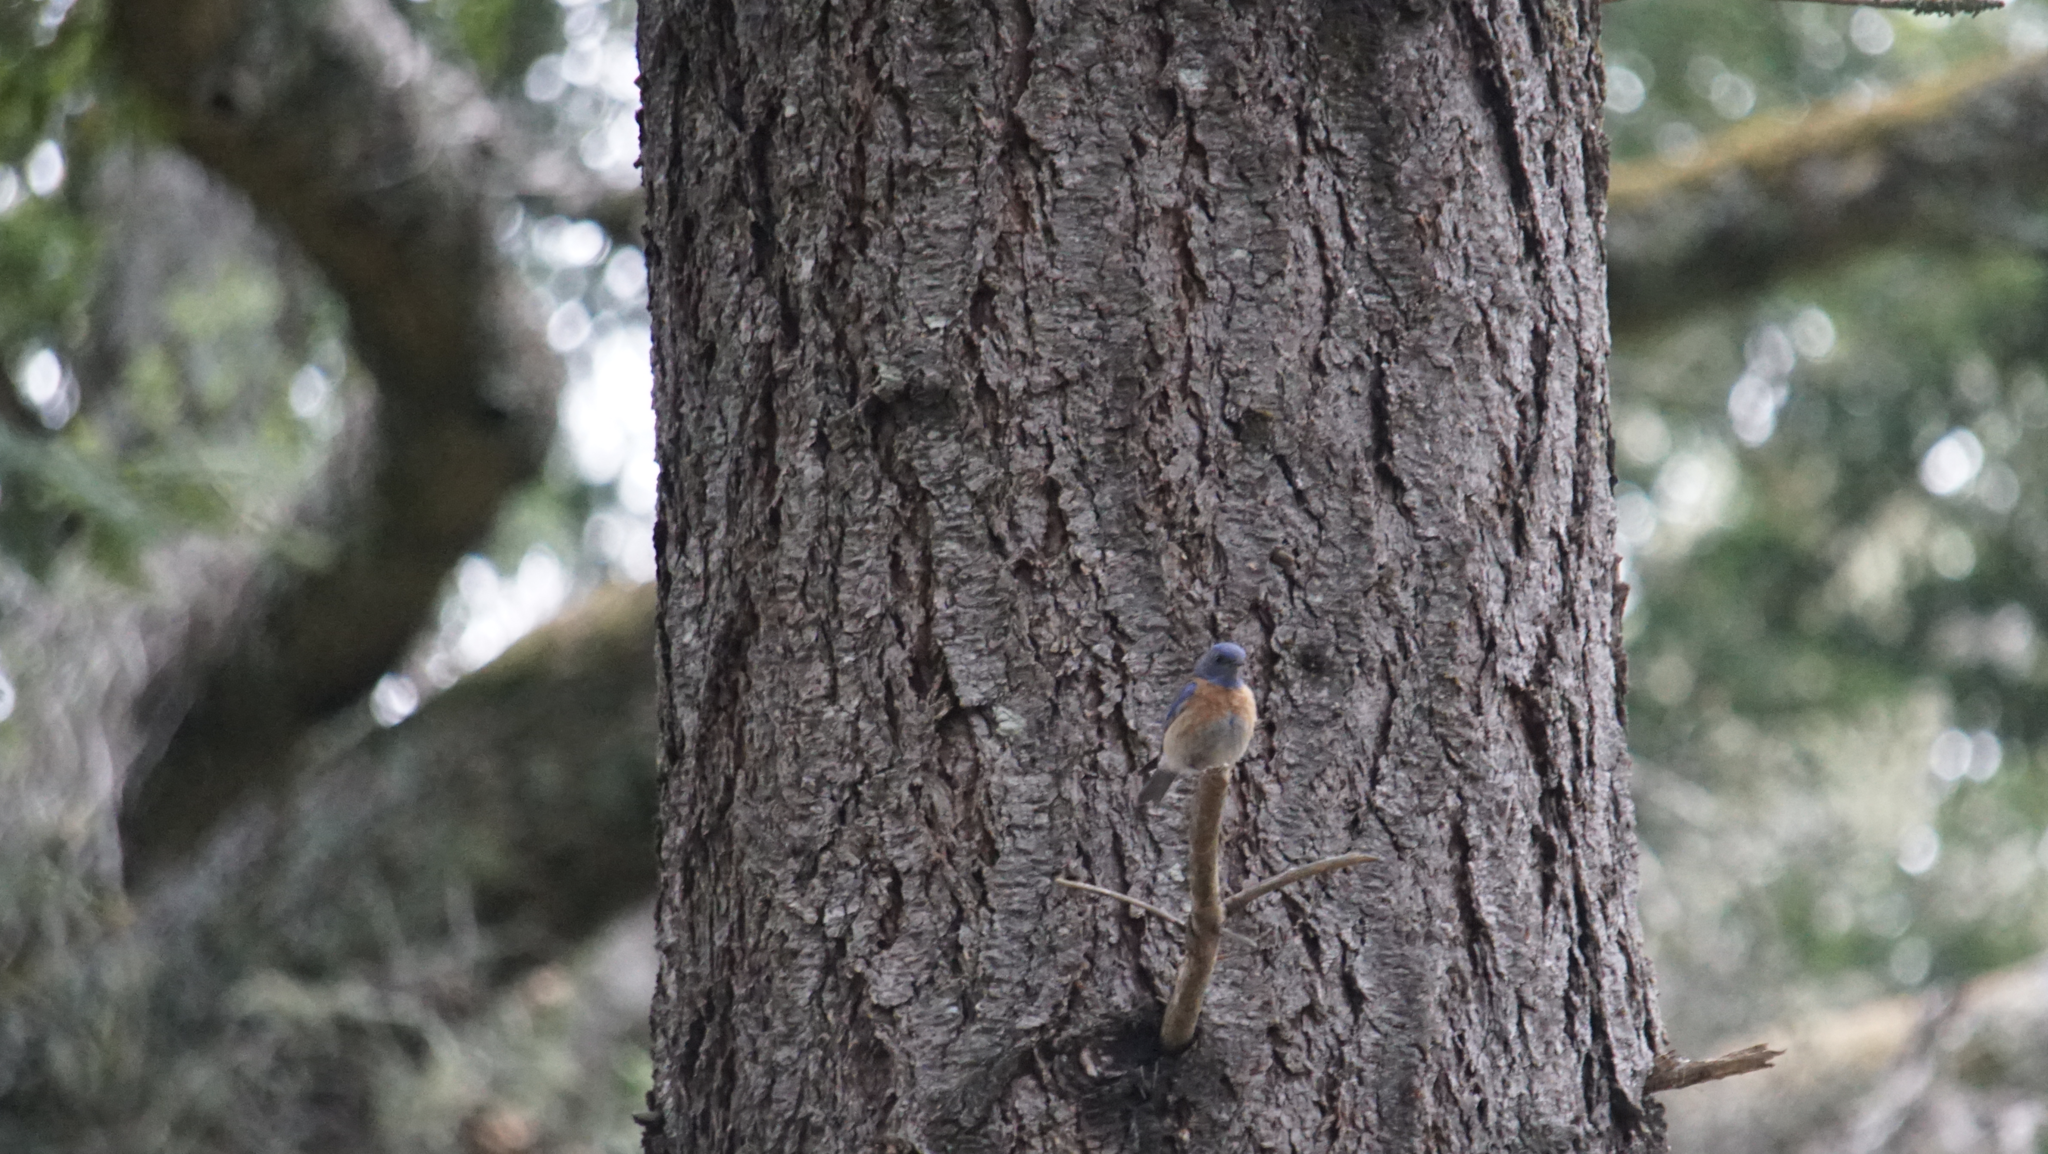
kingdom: Animalia
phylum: Chordata
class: Aves
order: Passeriformes
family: Turdidae
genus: Sialia
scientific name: Sialia mexicana
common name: Western bluebird
